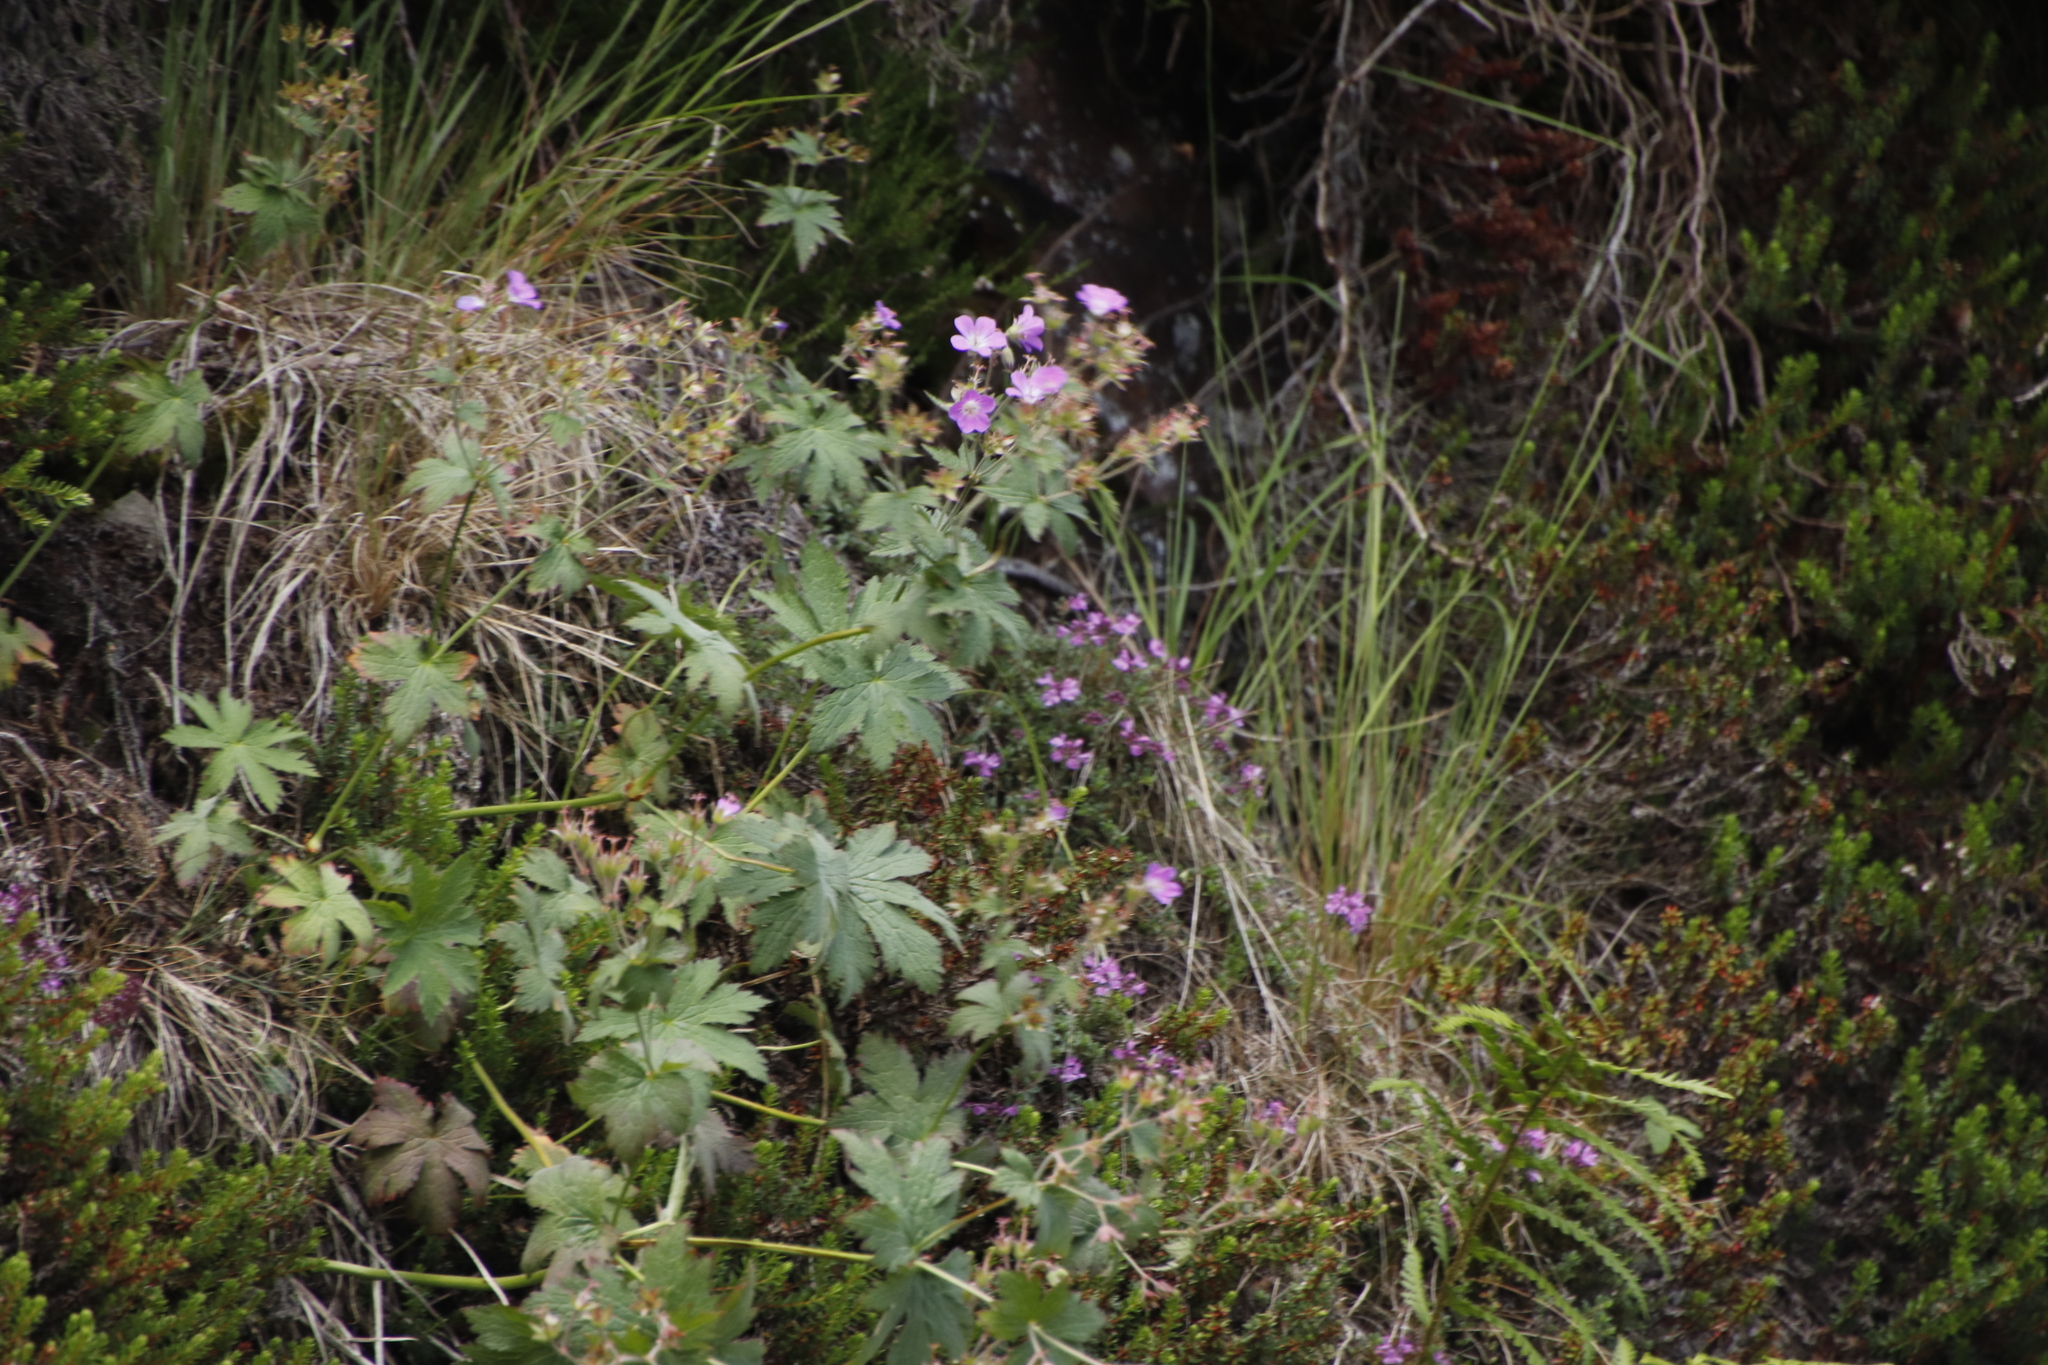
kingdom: Plantae
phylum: Tracheophyta
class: Magnoliopsida
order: Geraniales
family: Geraniaceae
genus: Geranium
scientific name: Geranium sylvaticum
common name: Wood crane's-bill
